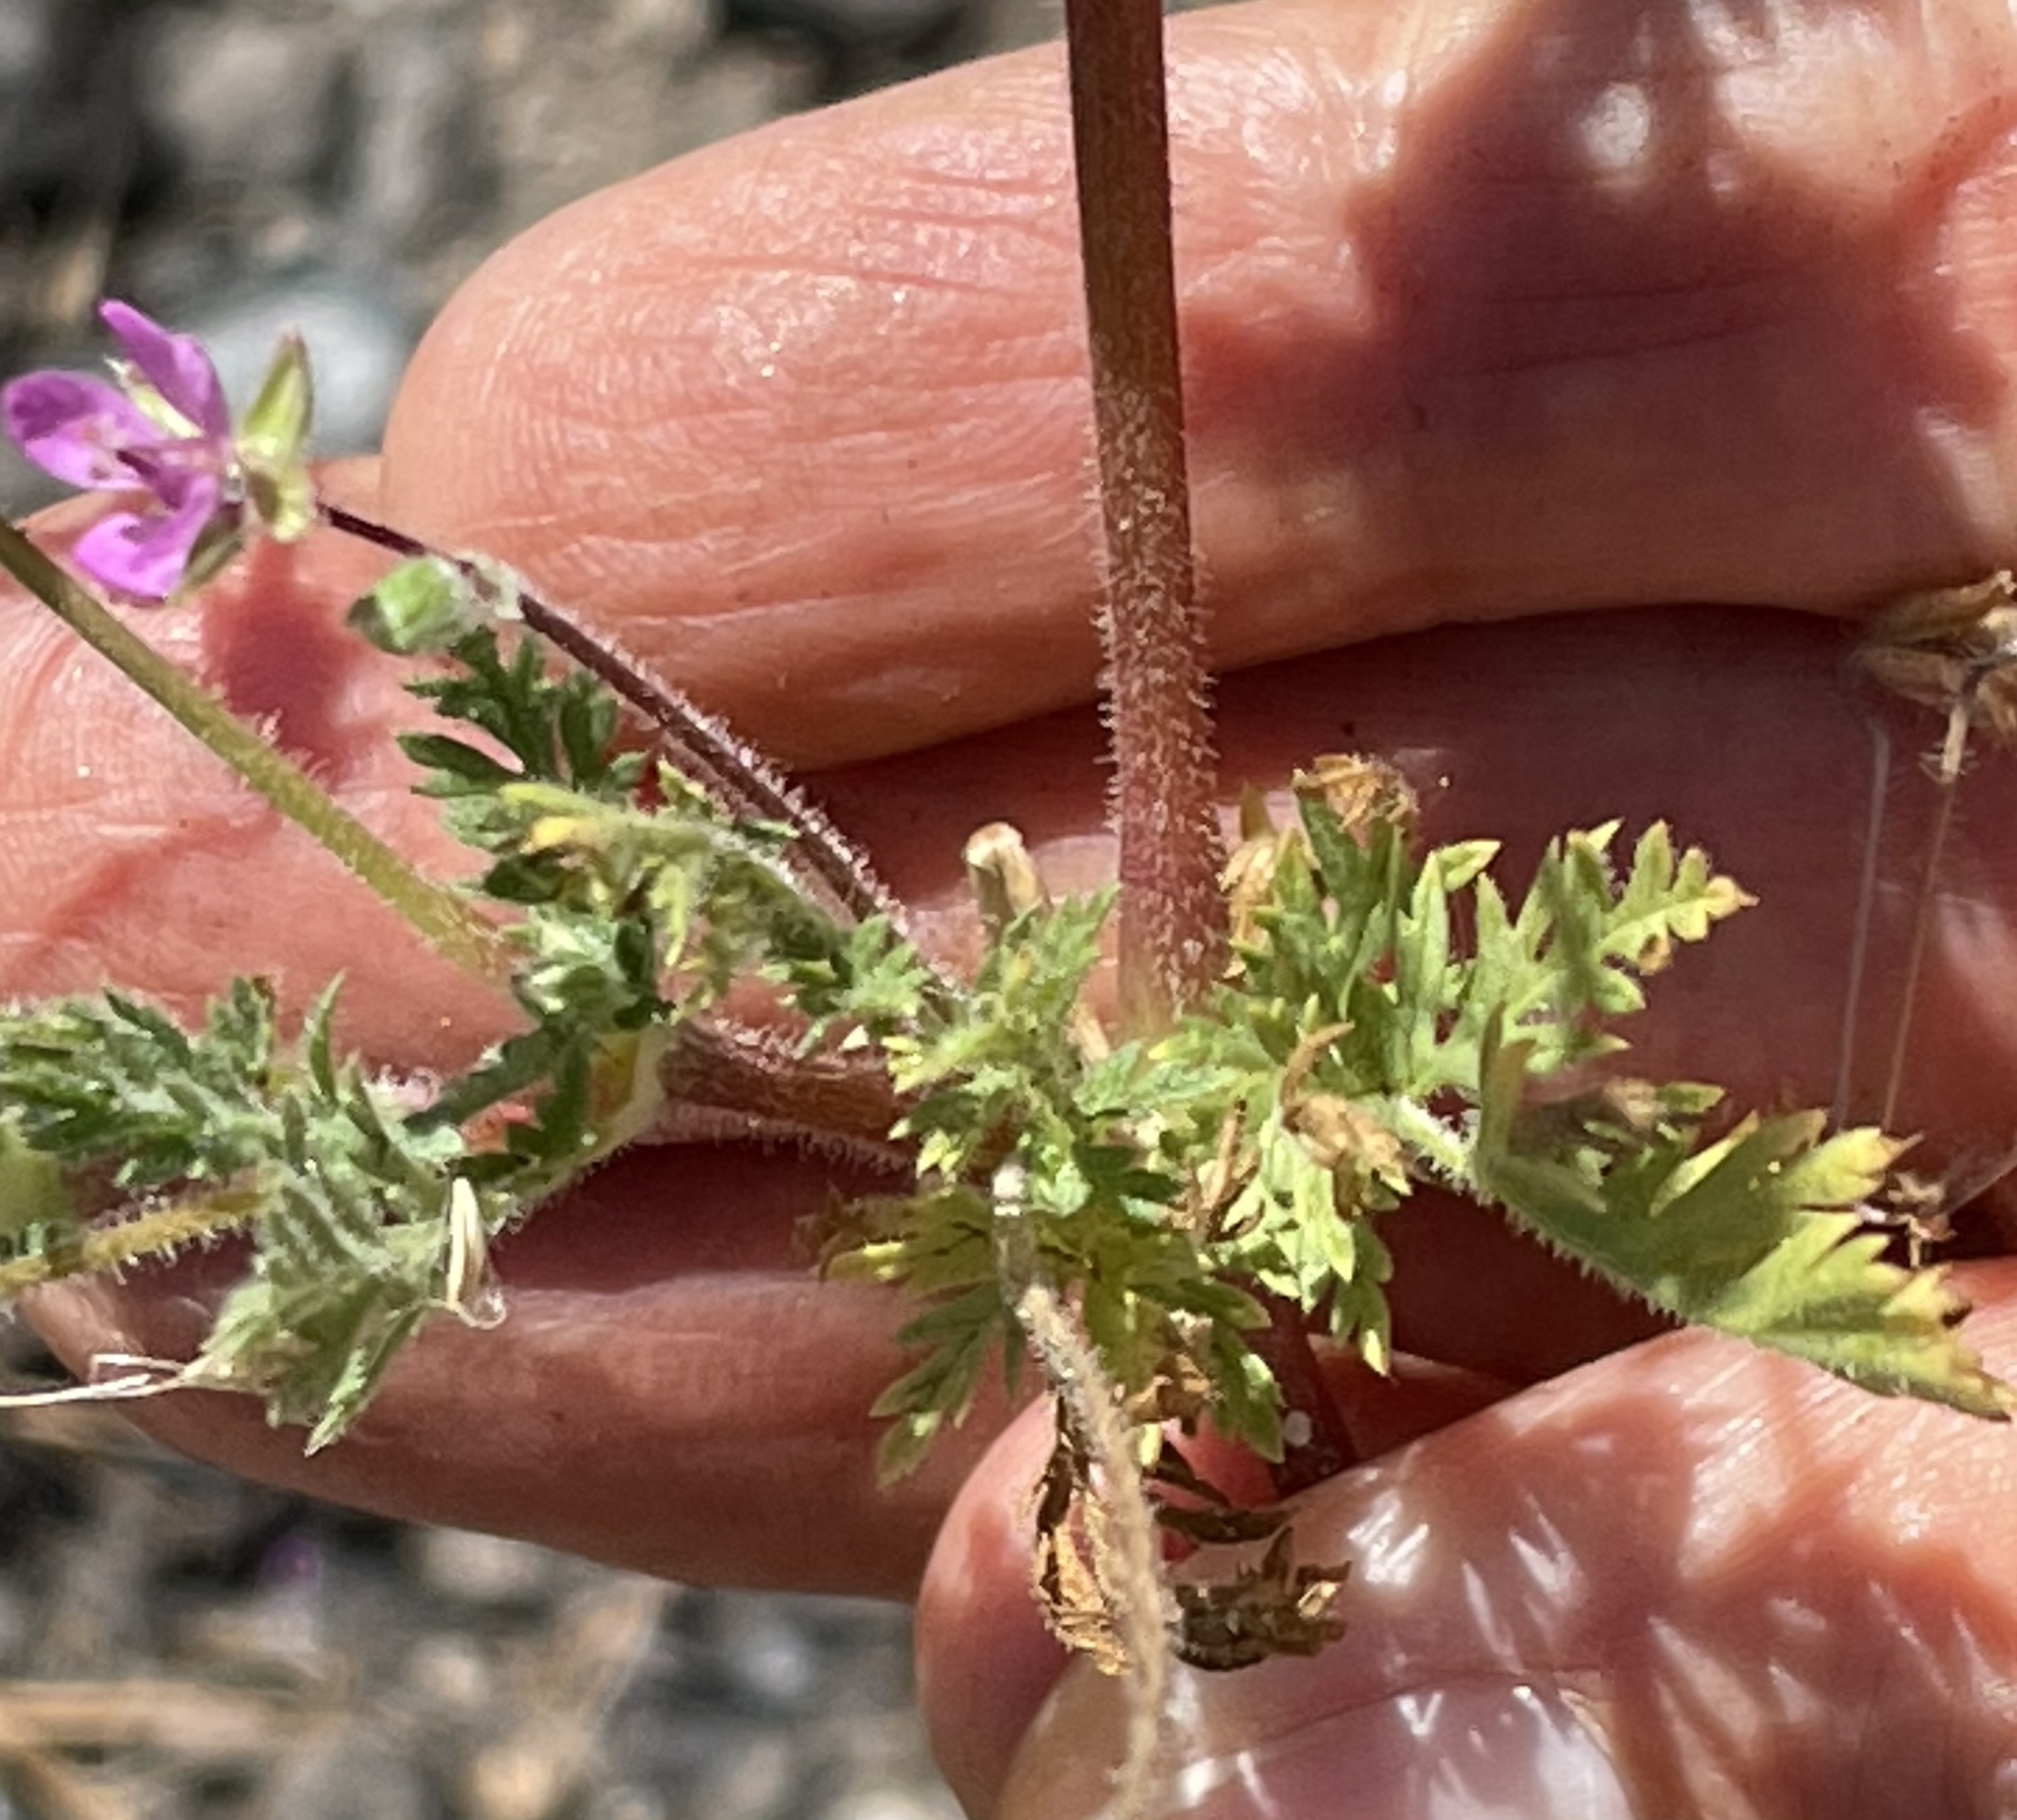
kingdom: Plantae
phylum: Tracheophyta
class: Magnoliopsida
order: Geraniales
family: Geraniaceae
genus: Erodium
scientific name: Erodium cicutarium
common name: Common stork's-bill
